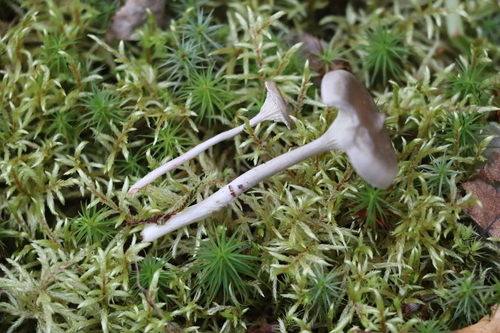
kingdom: Fungi
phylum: Basidiomycota
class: Agaricomycetes
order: Agaricales
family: Hygrophoraceae
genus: Cantharellula
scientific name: Cantharellula umbonata
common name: The humpback
